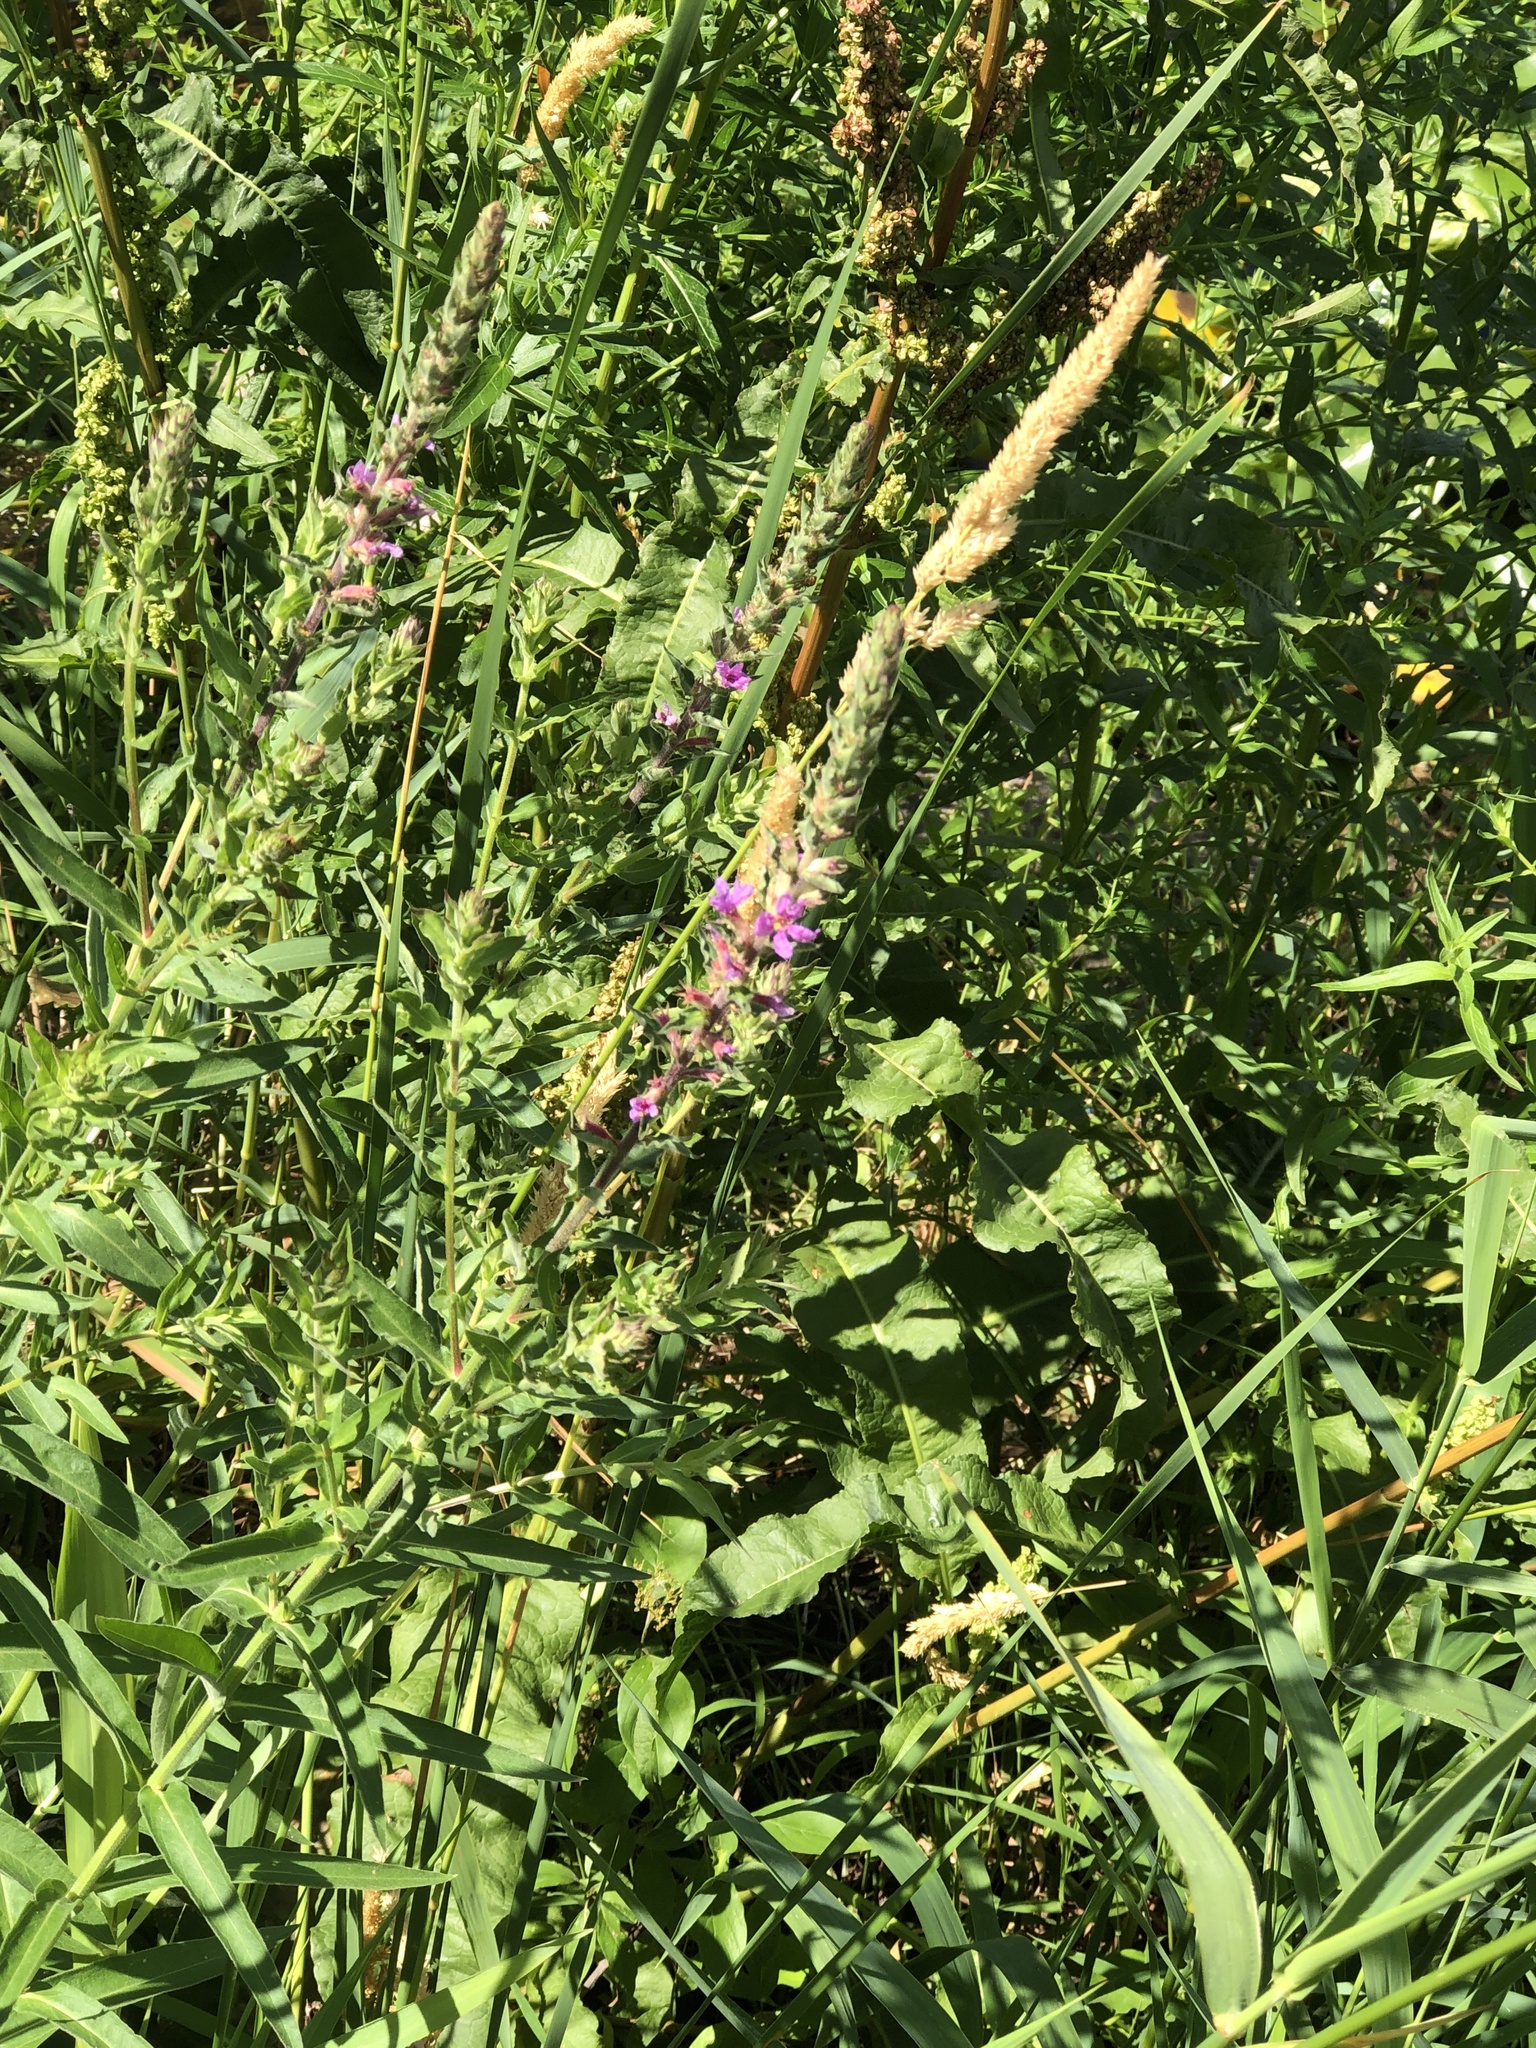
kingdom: Plantae
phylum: Tracheophyta
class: Magnoliopsida
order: Myrtales
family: Lythraceae
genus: Lythrum
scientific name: Lythrum salicaria
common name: Purple loosestrife
